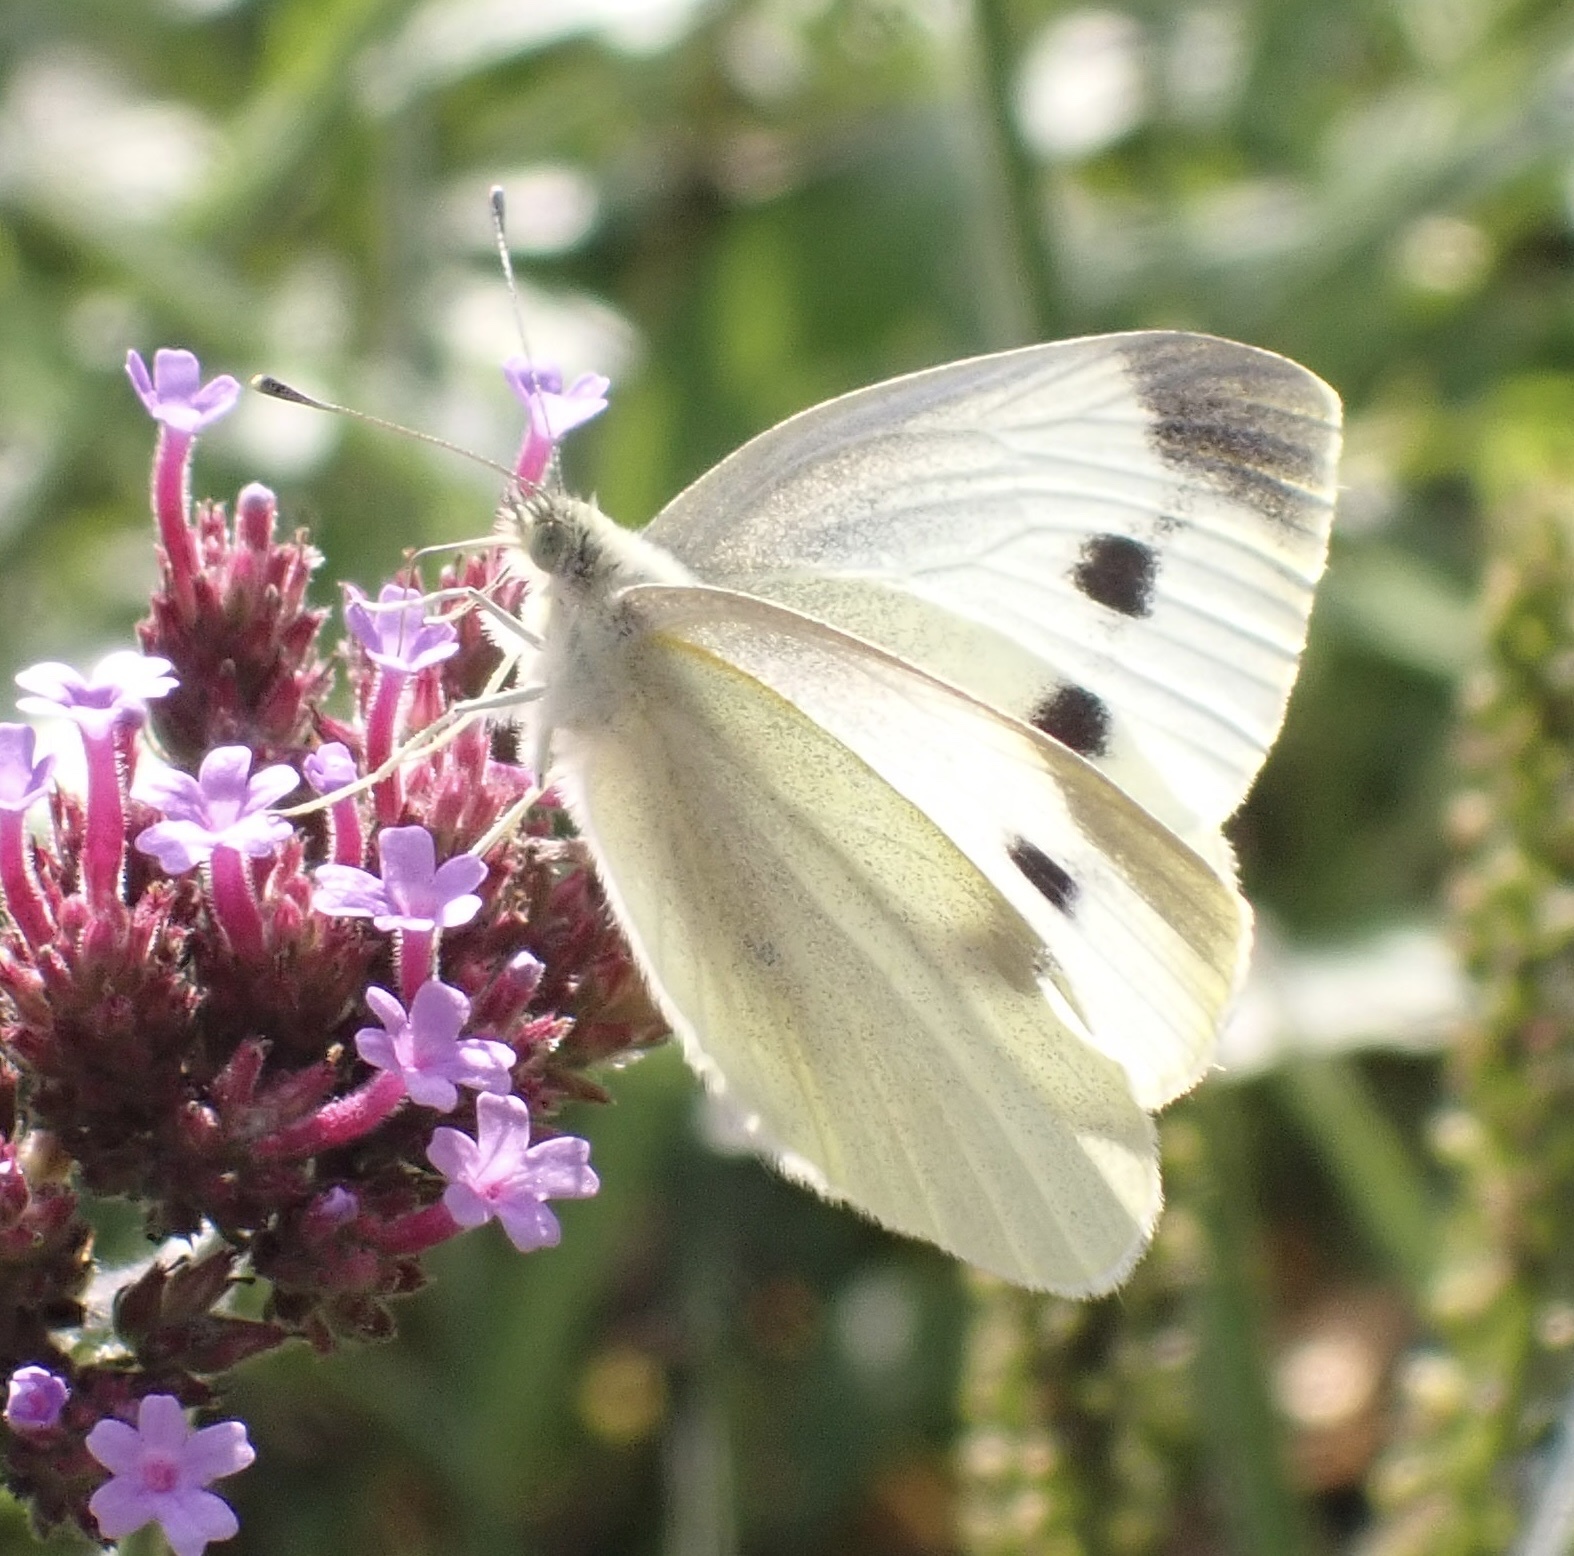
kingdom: Animalia
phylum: Arthropoda
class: Insecta
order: Lepidoptera
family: Pieridae
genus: Pieris
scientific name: Pieris rapae
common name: Small white
